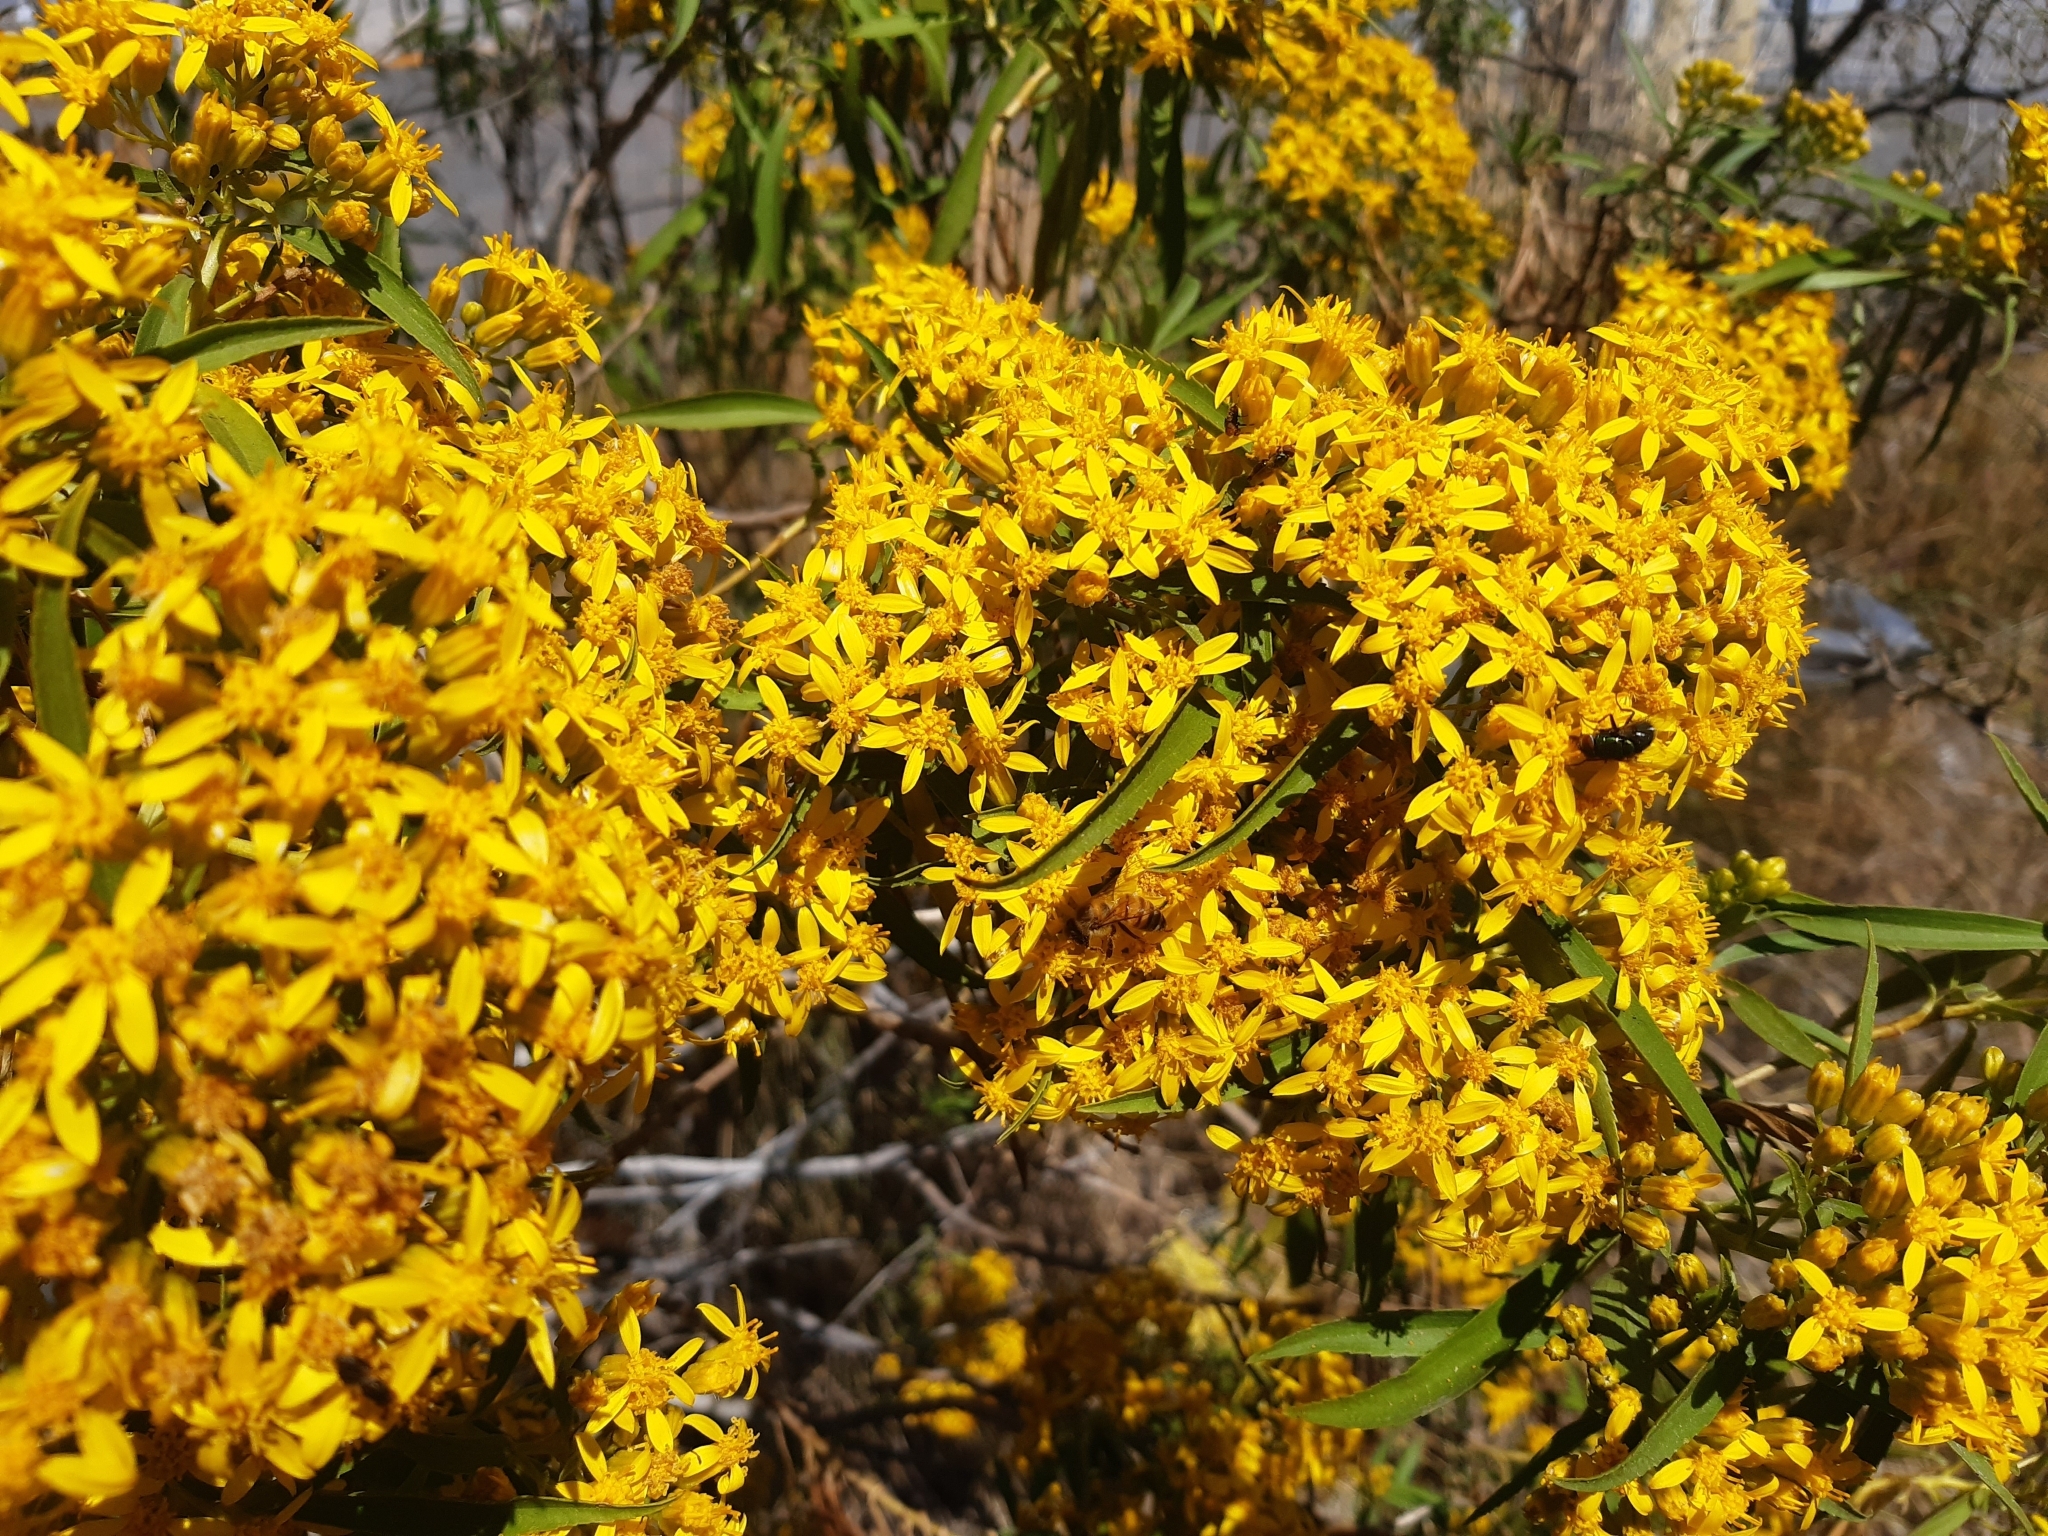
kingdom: Plantae
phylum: Tracheophyta
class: Magnoliopsida
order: Asterales
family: Asteraceae
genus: Barkleyanthus
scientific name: Barkleyanthus salicifolius
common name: Willow ragwort
